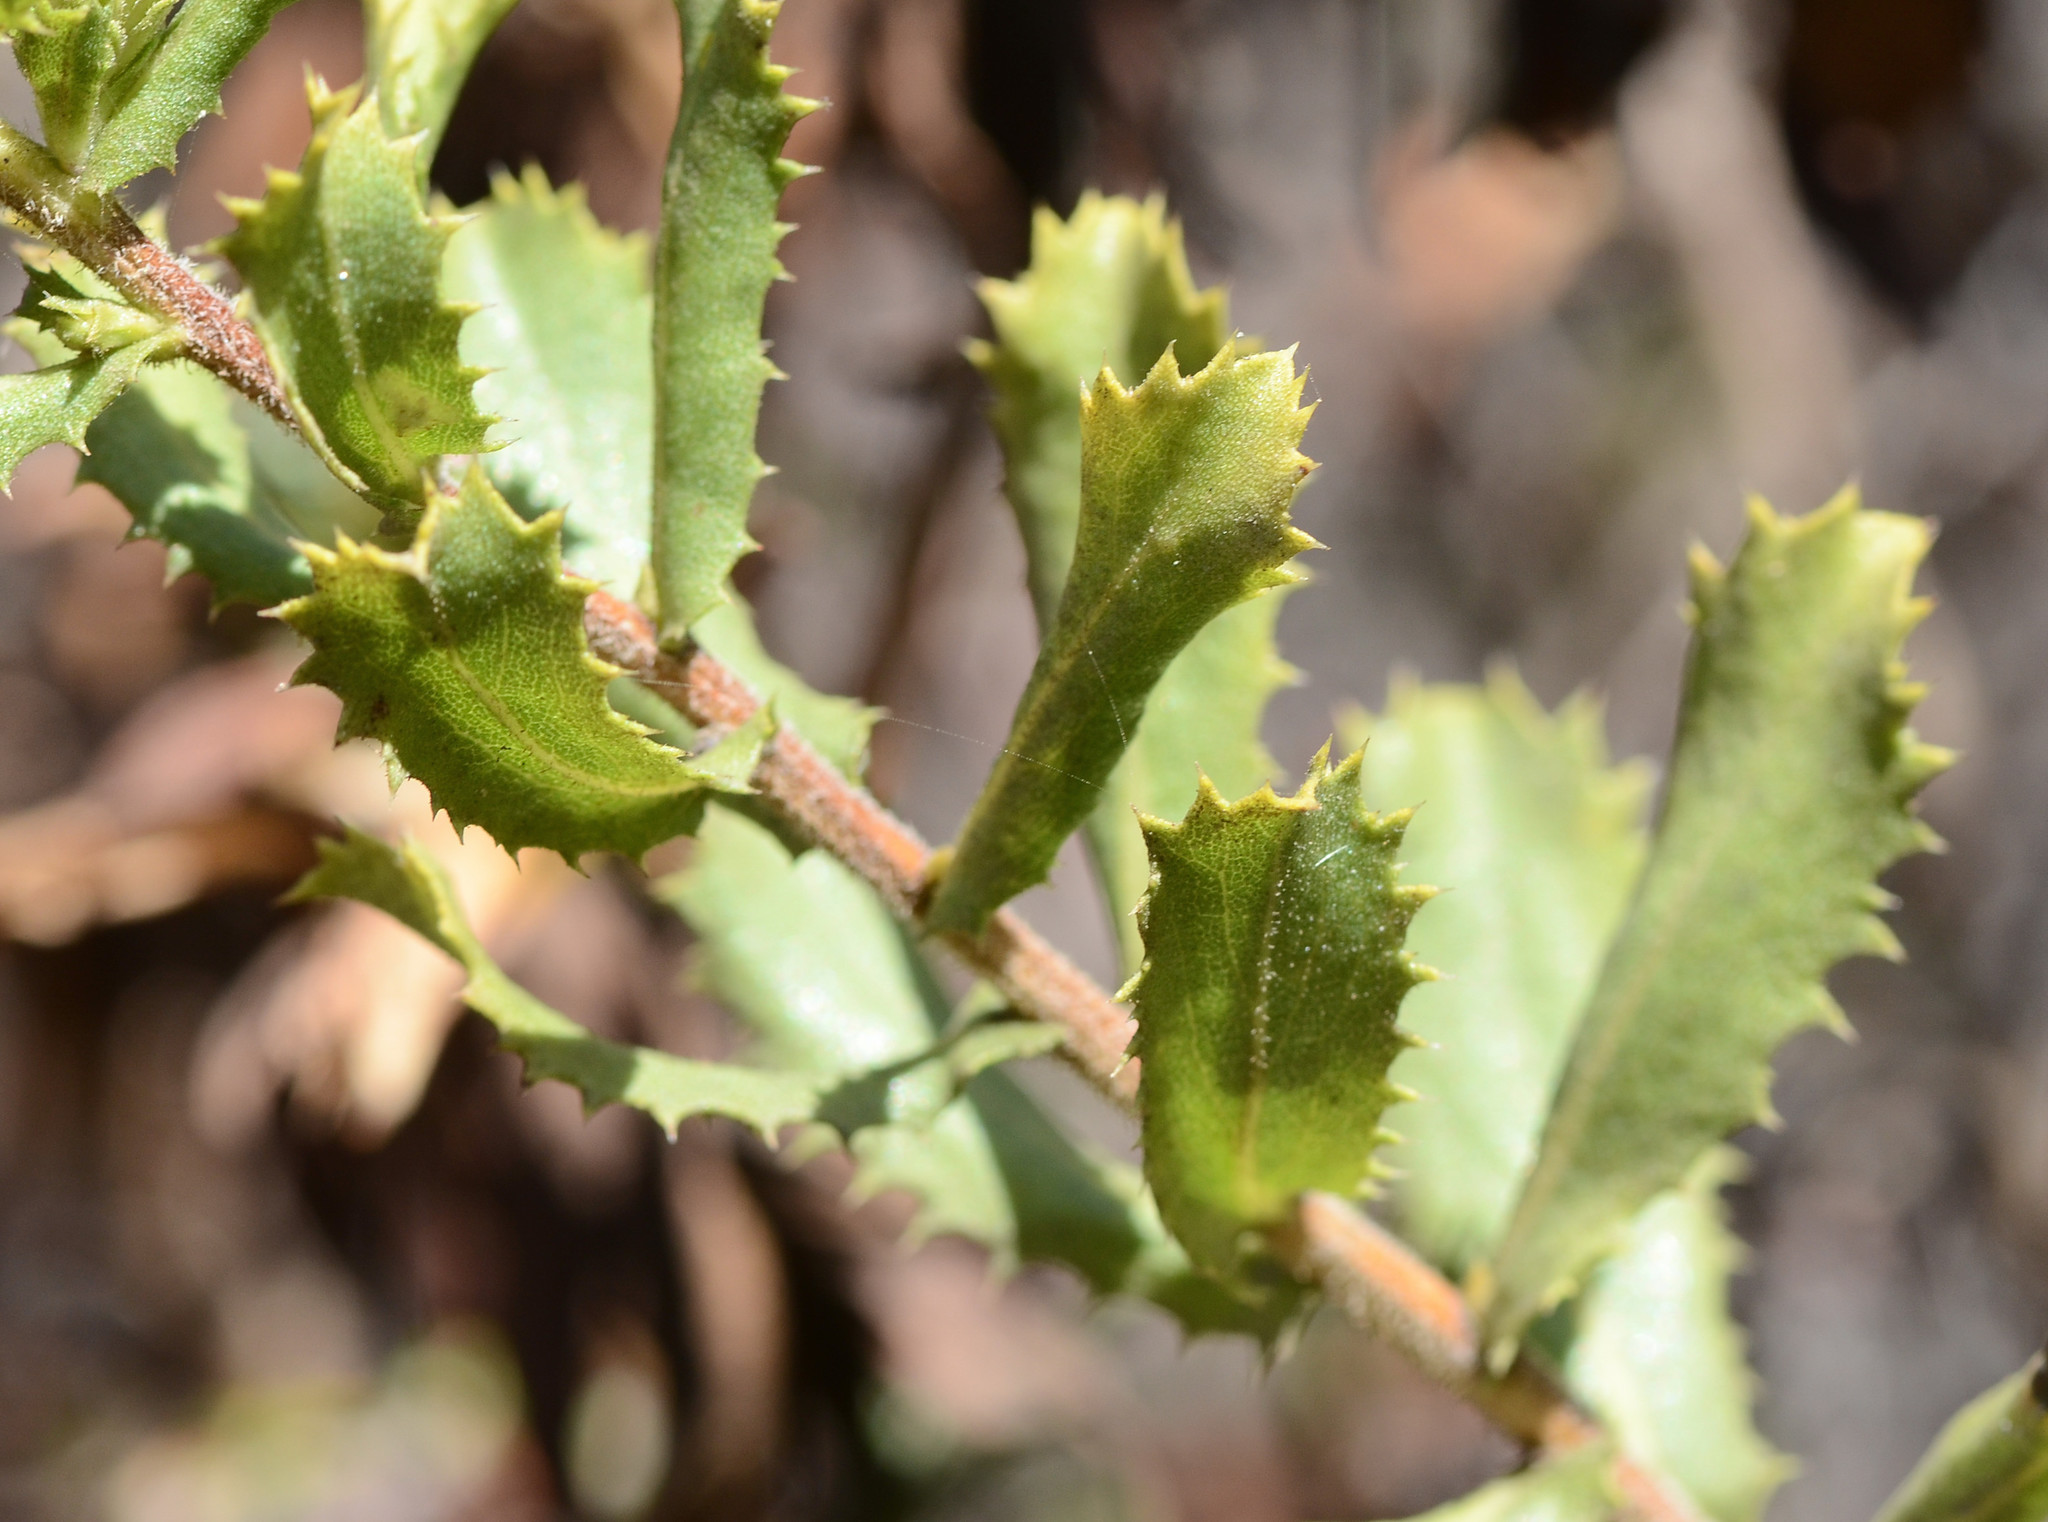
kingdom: Plantae
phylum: Tracheophyta
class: Magnoliopsida
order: Asterales
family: Asteraceae
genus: Hazardia
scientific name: Hazardia squarrosa
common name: Saw-tooth goldenbush
